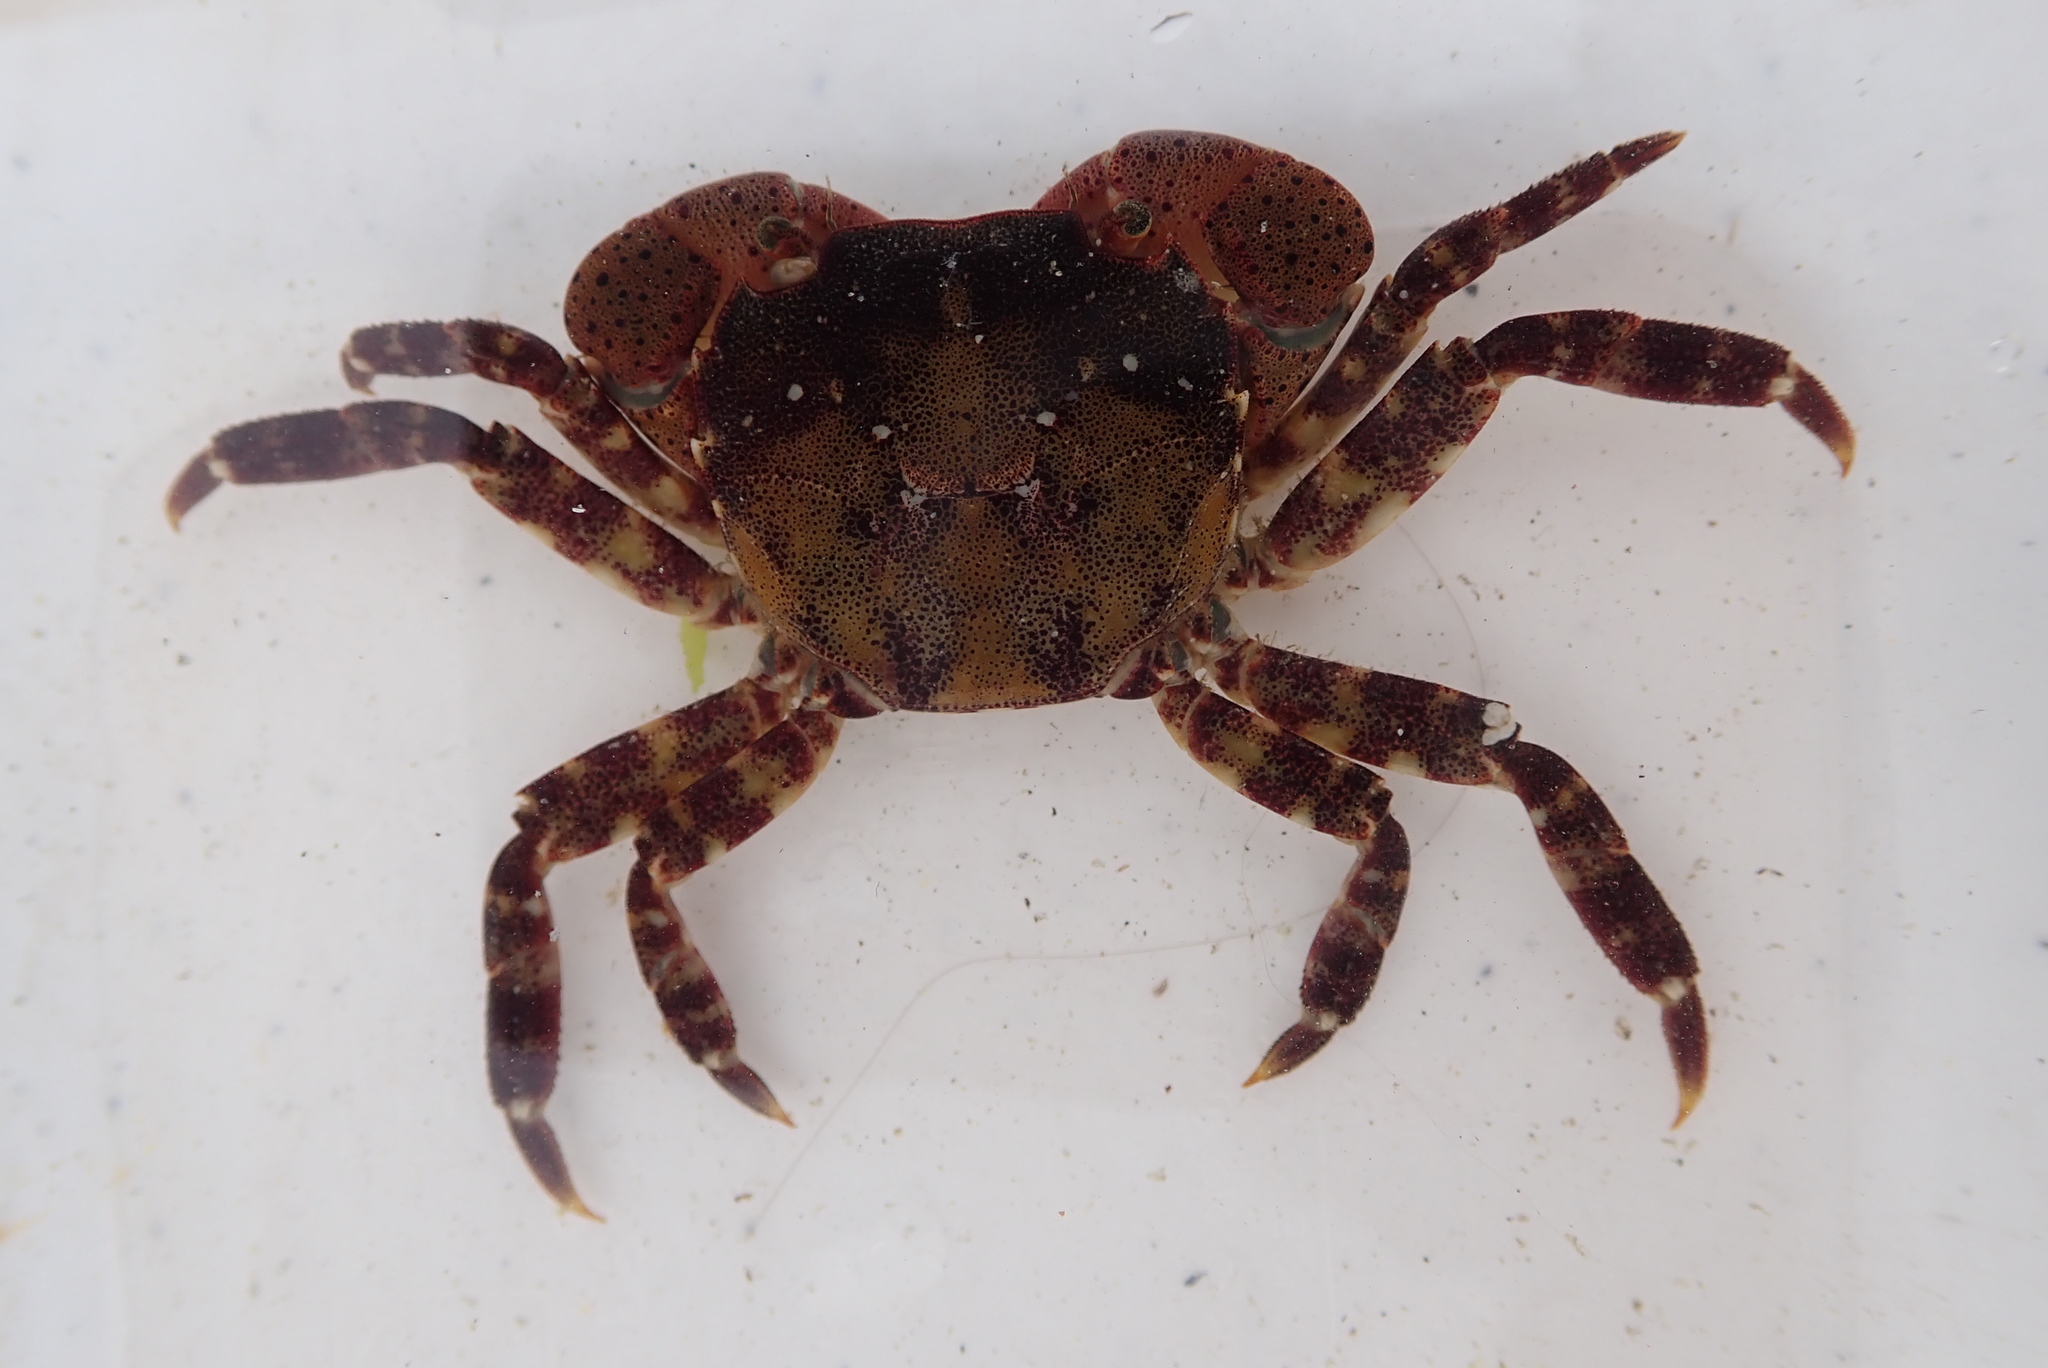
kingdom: Animalia
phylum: Arthropoda
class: Malacostraca
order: Decapoda
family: Varunidae
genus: Hemigrapsus
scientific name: Hemigrapsus sanguineus
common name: Asian shore crab
